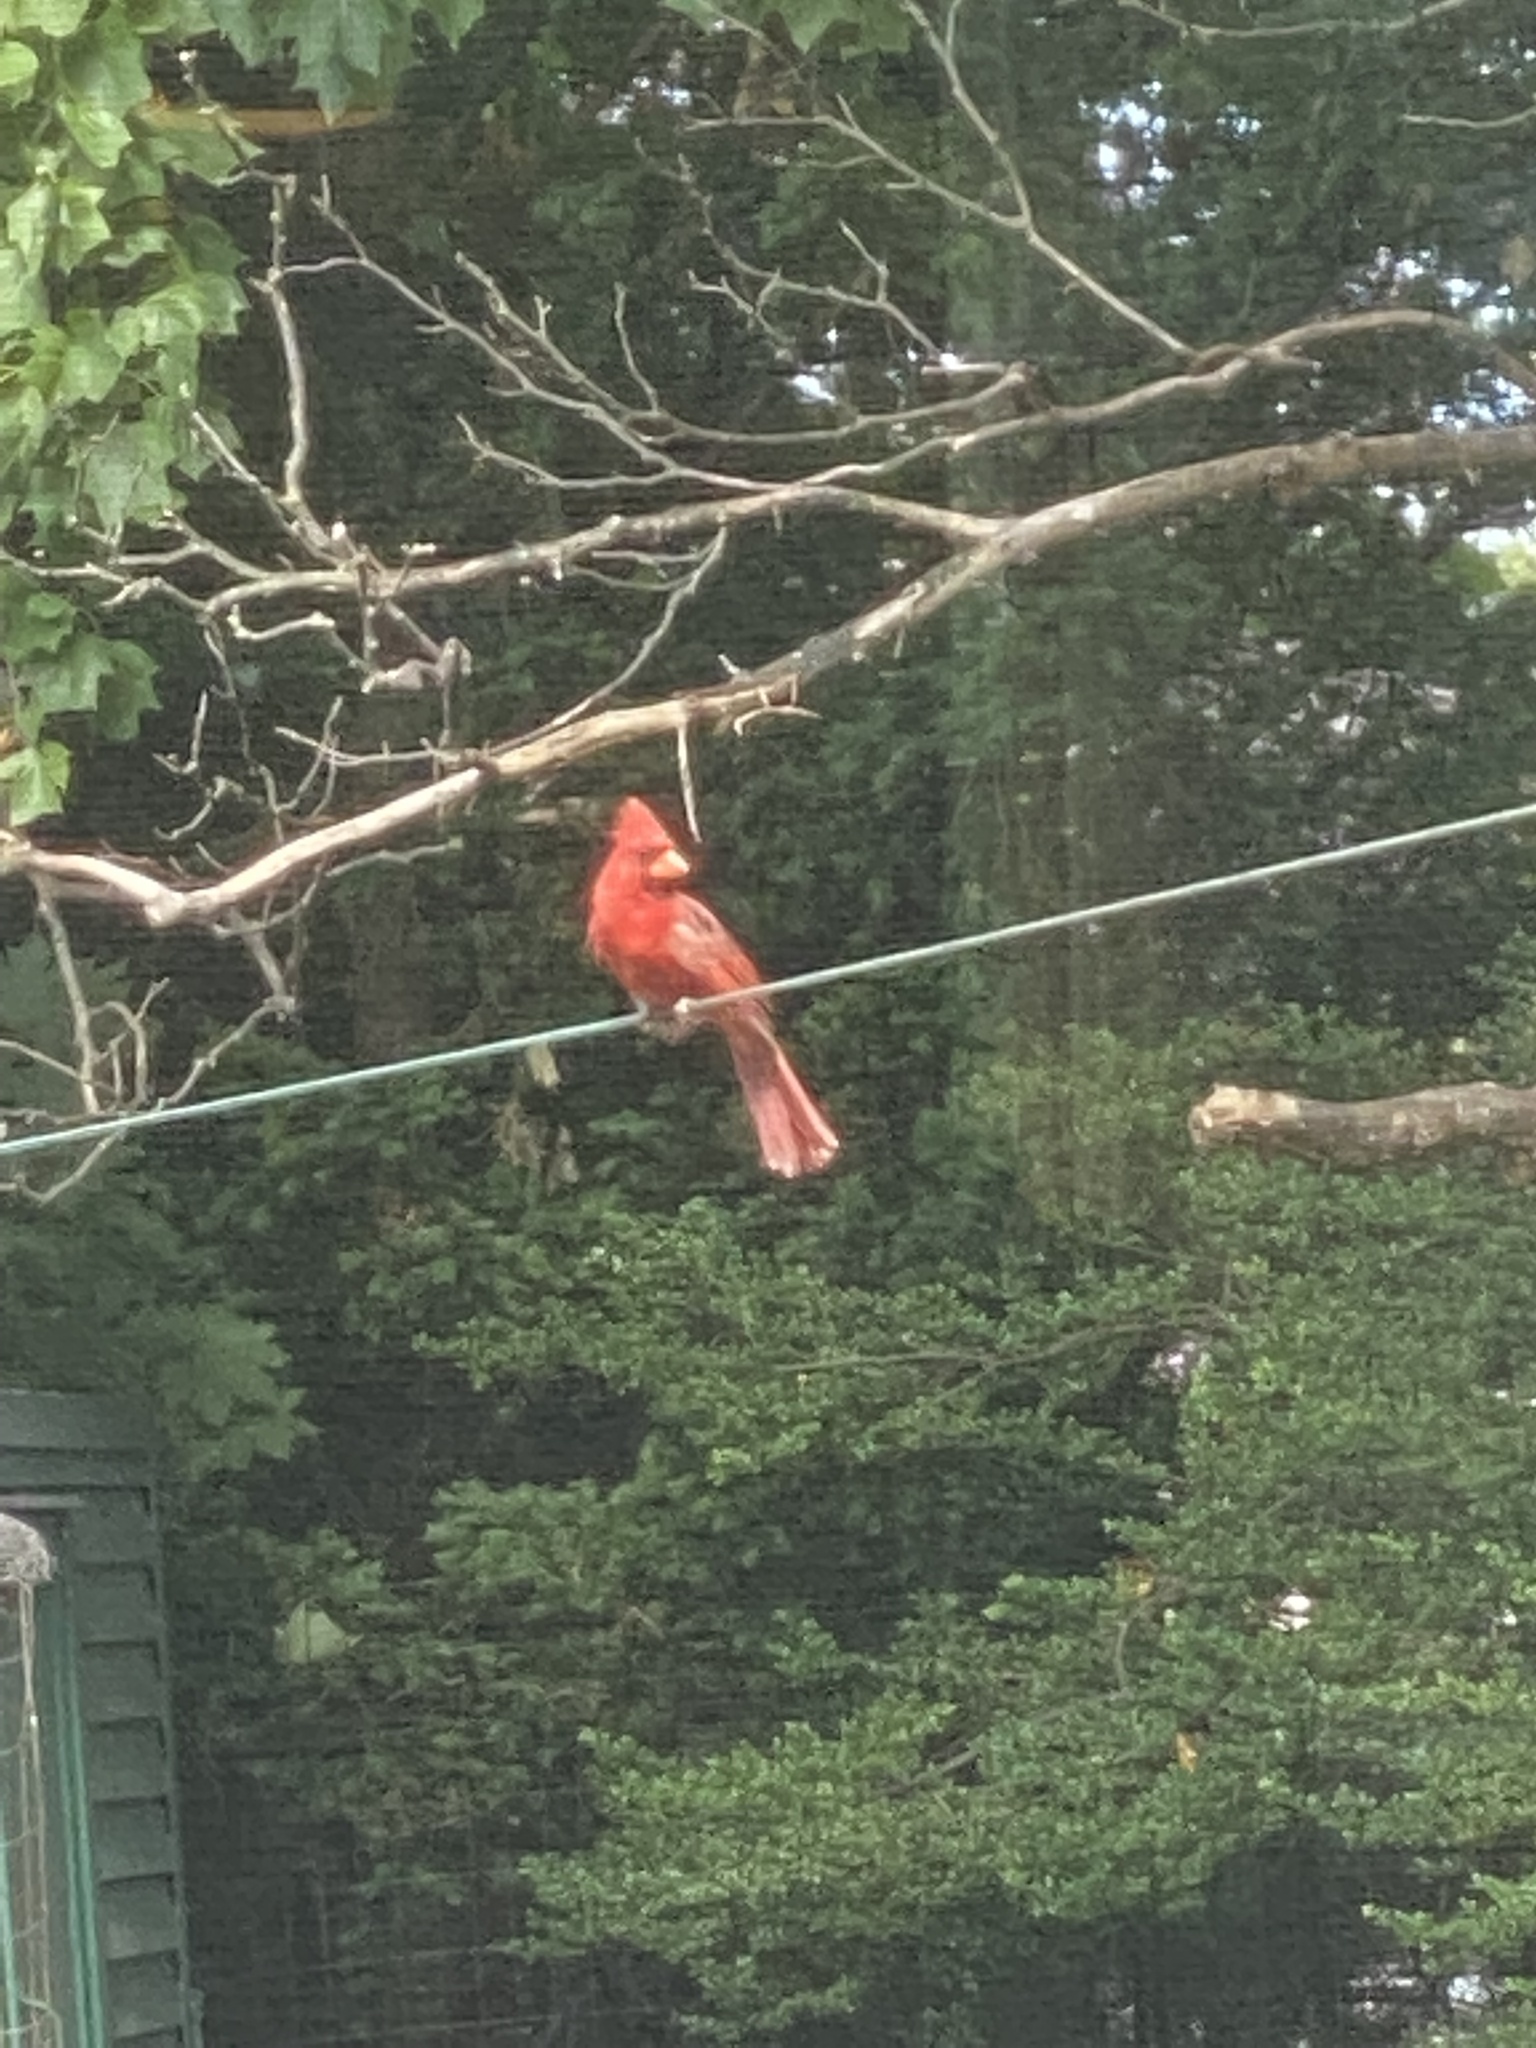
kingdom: Animalia
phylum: Chordata
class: Aves
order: Passeriformes
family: Cardinalidae
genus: Cardinalis
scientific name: Cardinalis cardinalis
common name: Northern cardinal
